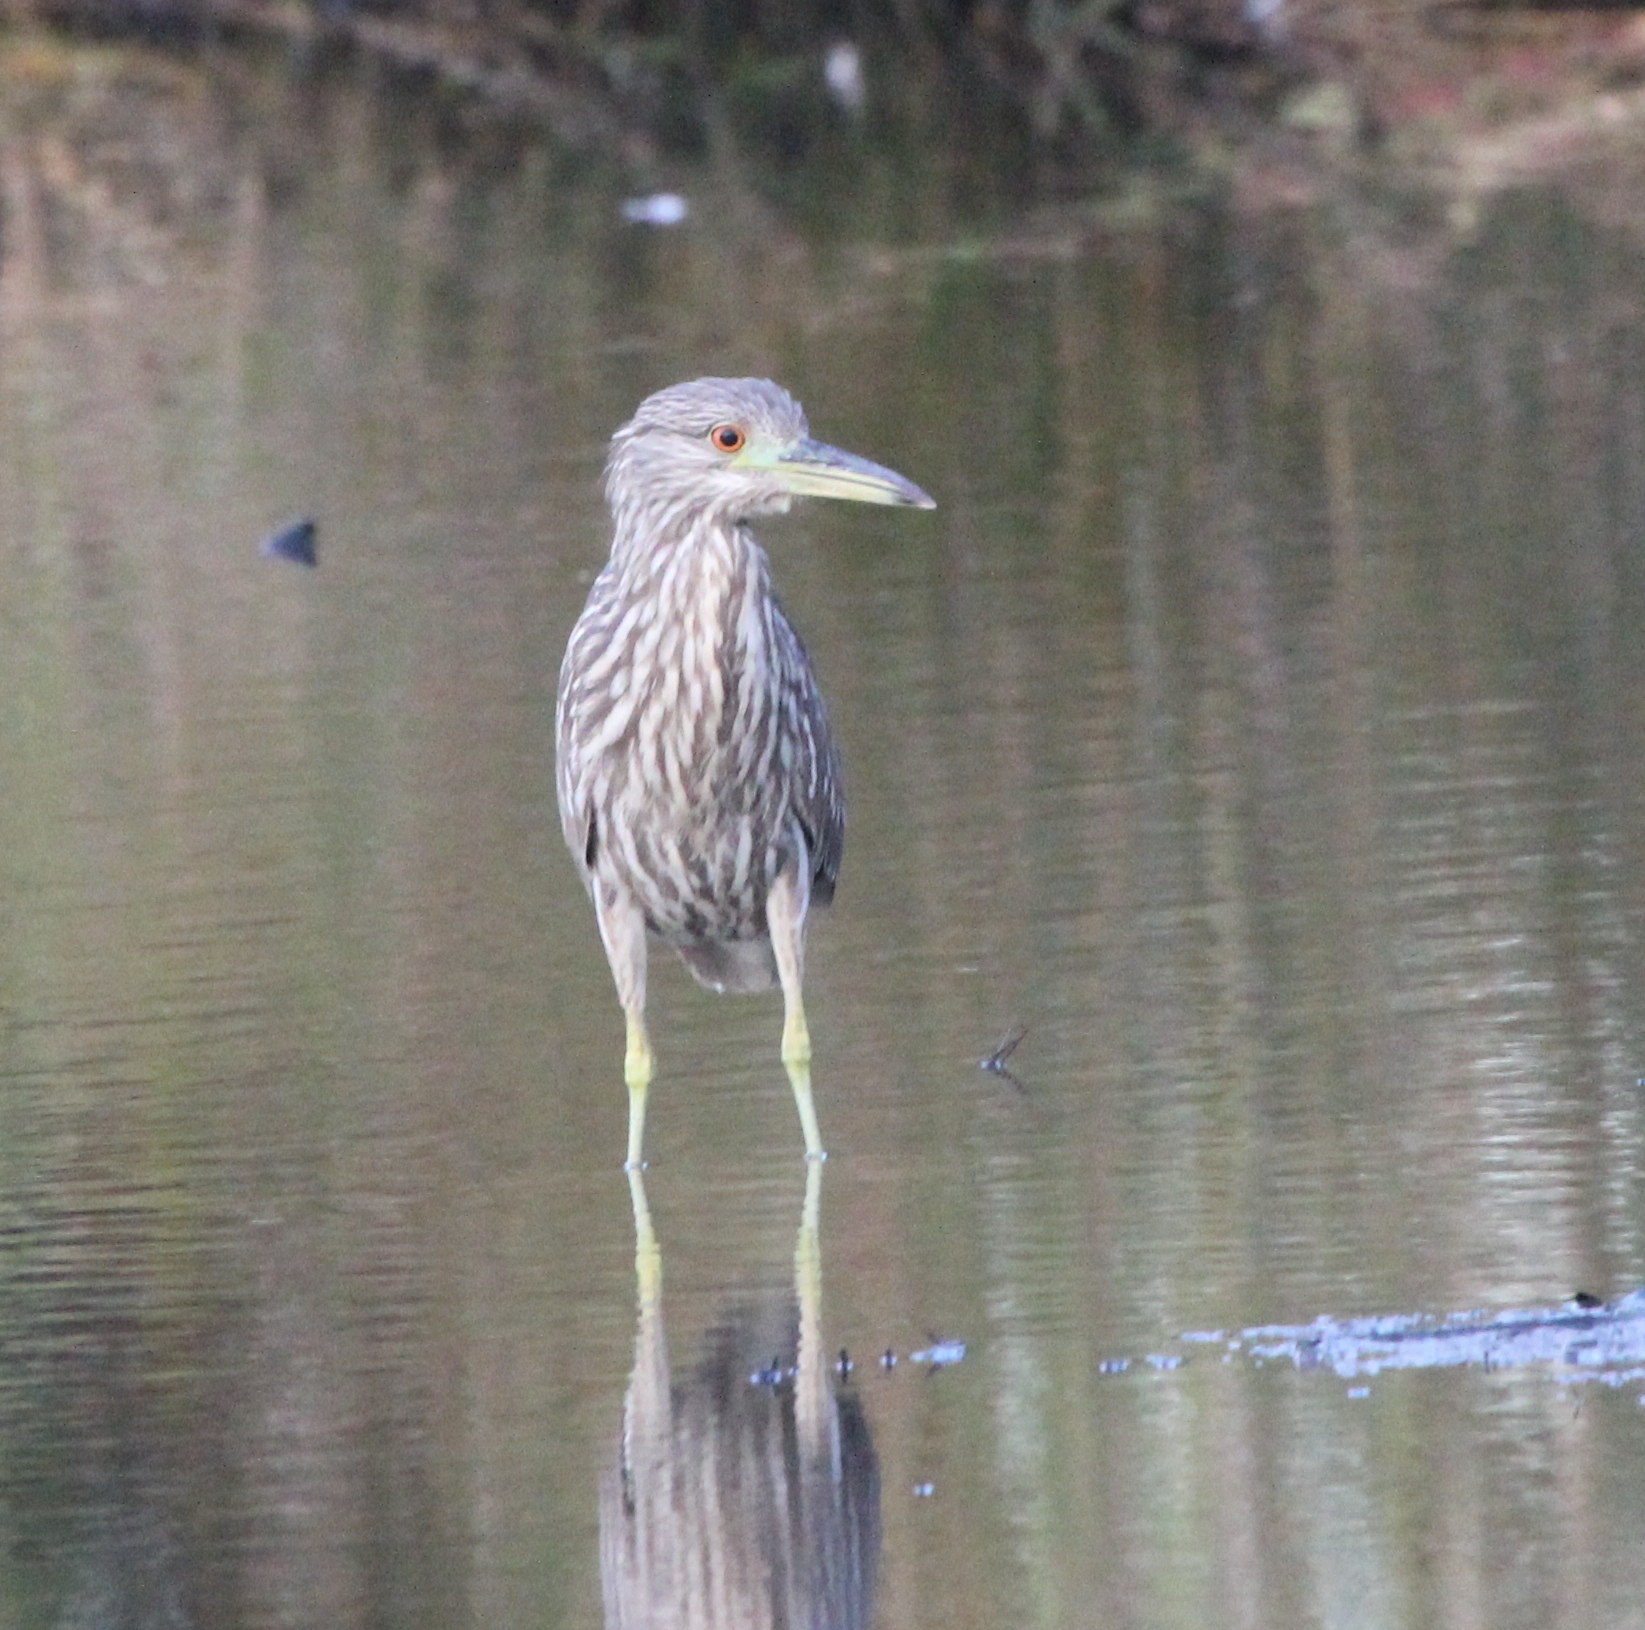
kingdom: Animalia
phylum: Chordata
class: Aves
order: Pelecaniformes
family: Ardeidae
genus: Nycticorax
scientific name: Nycticorax nycticorax
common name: Black-crowned night heron
